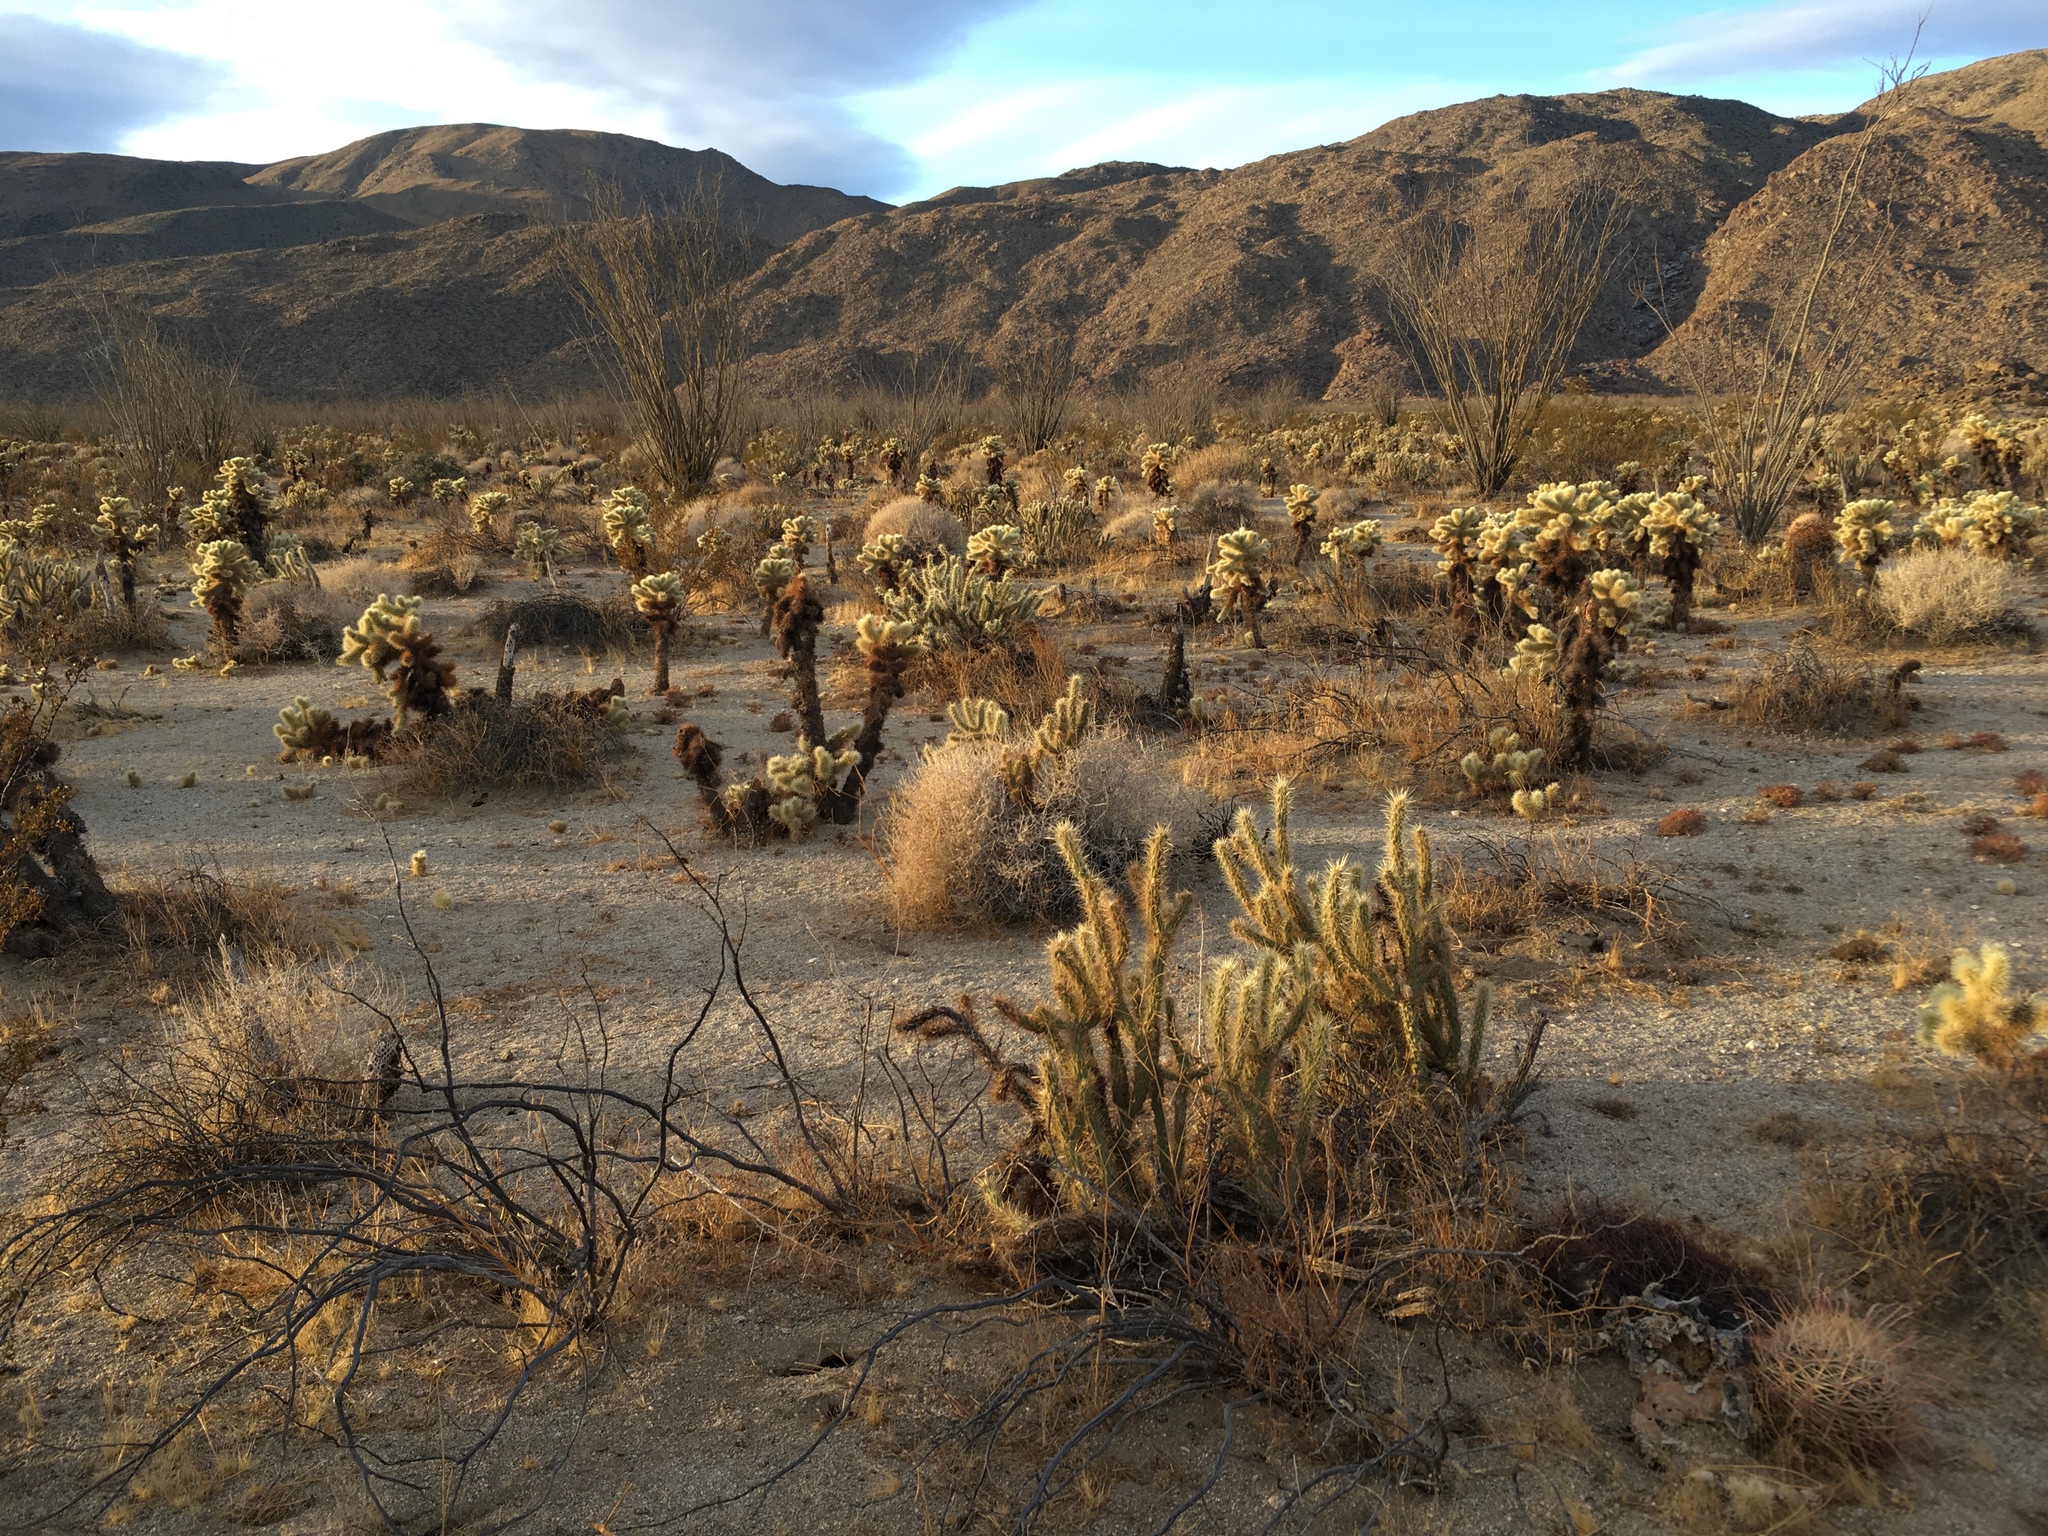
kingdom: Plantae
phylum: Tracheophyta
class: Magnoliopsida
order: Caryophyllales
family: Cactaceae
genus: Cylindropuntia
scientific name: Cylindropuntia fosbergii
